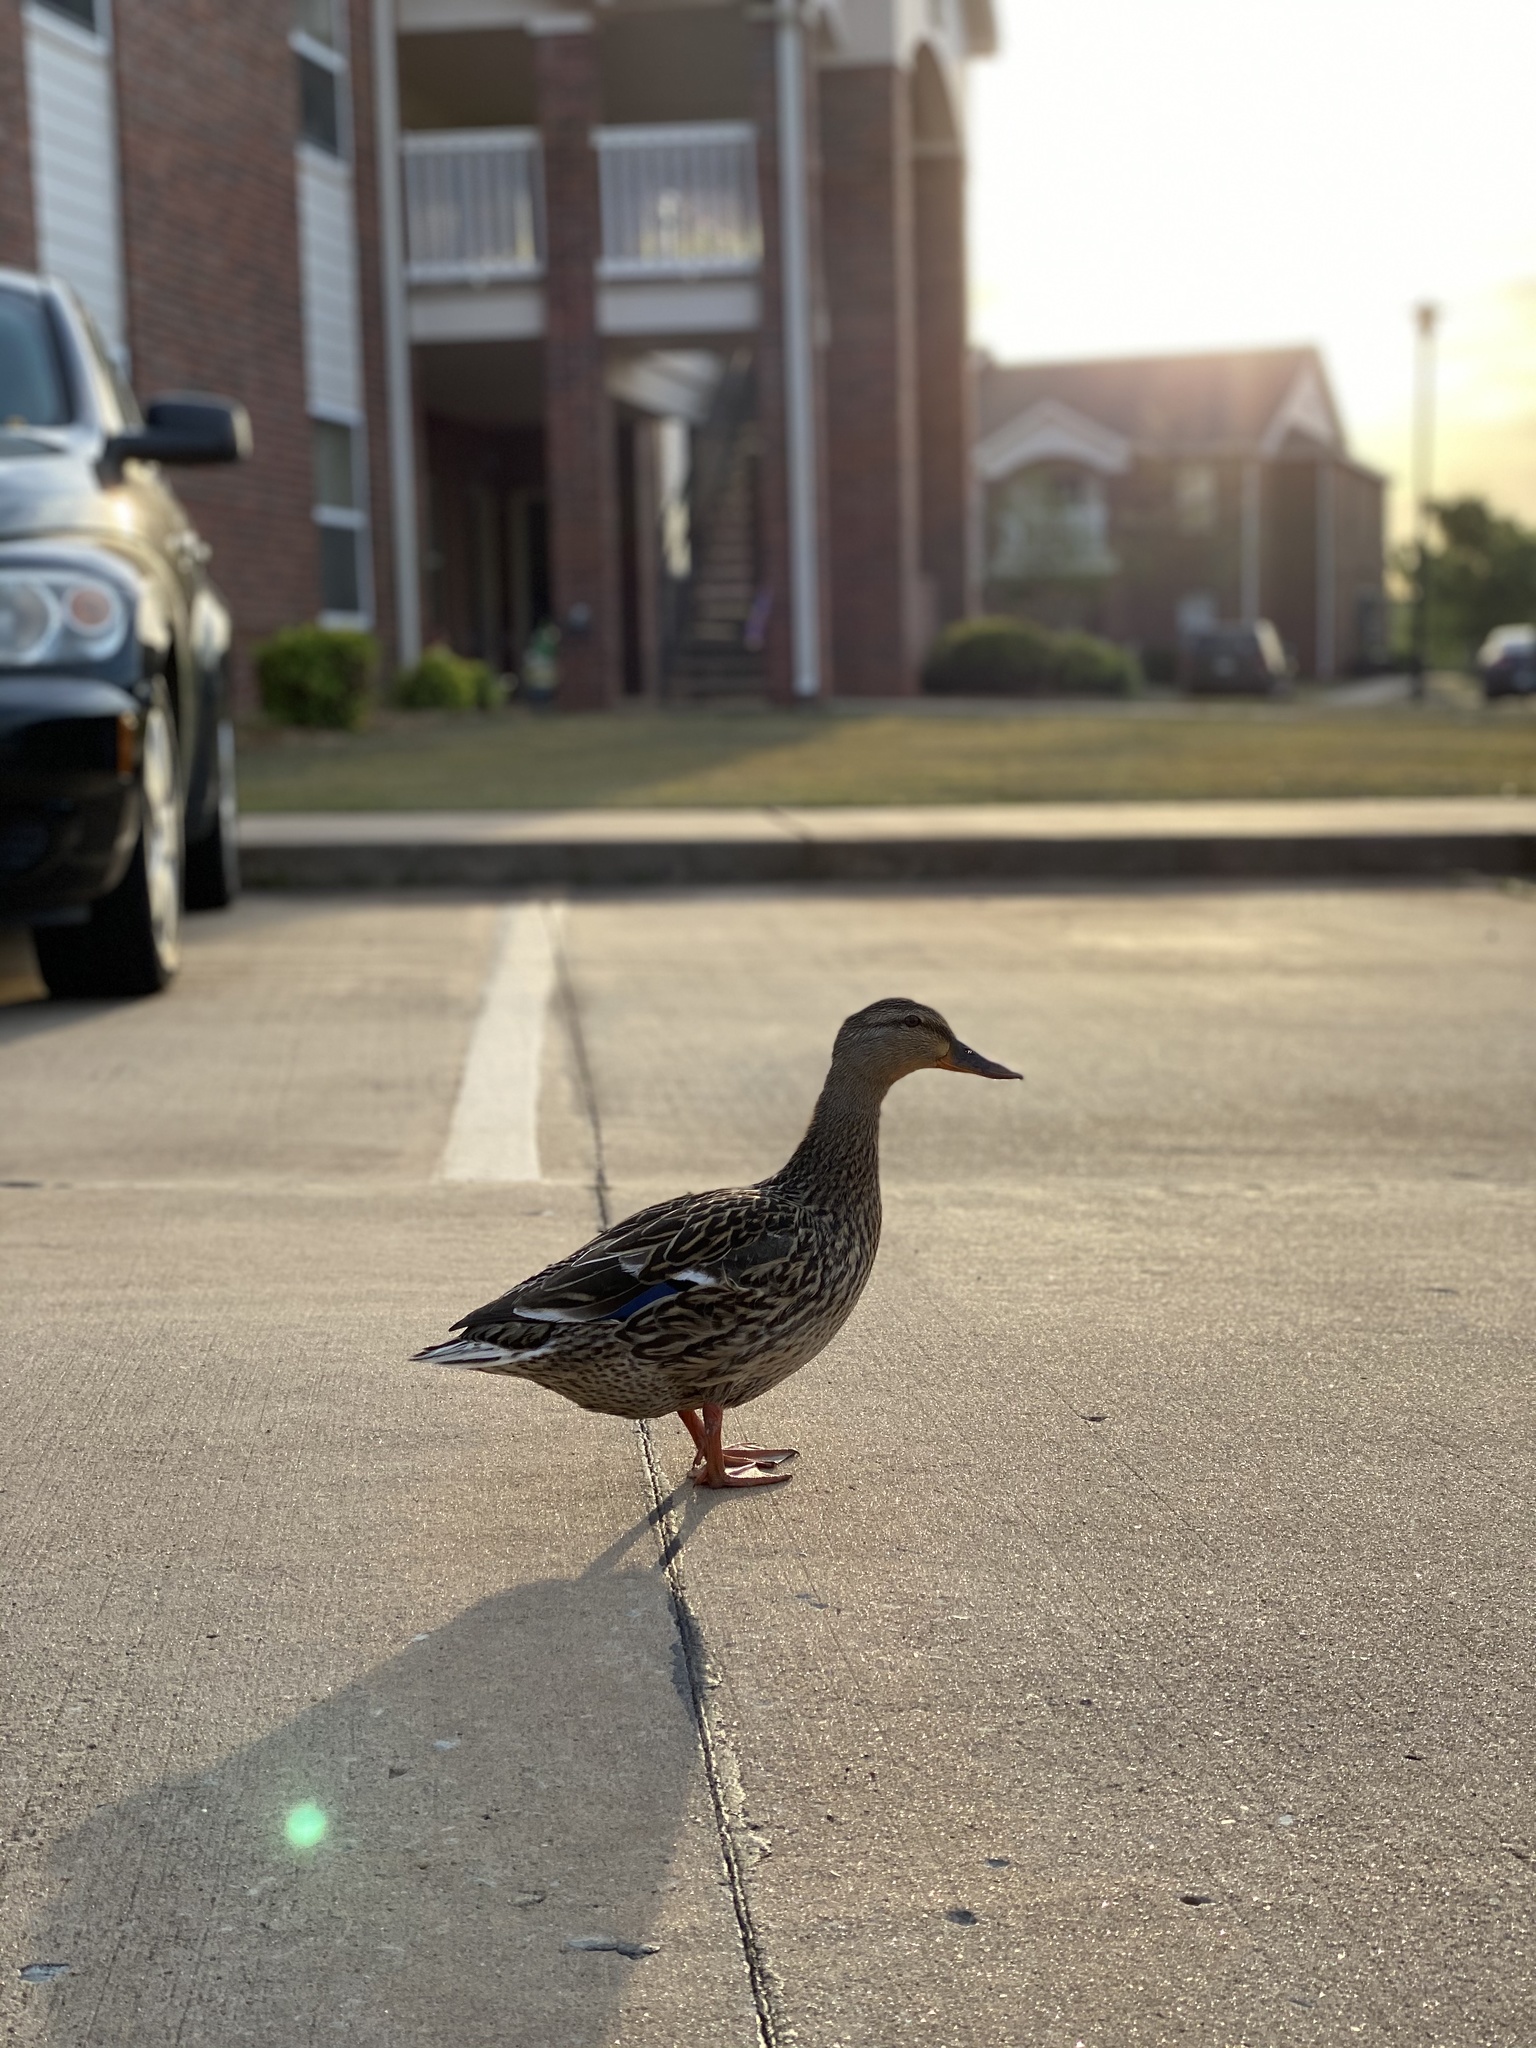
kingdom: Animalia
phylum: Chordata
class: Aves
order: Anseriformes
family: Anatidae
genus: Anas
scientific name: Anas platyrhynchos
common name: Mallard
